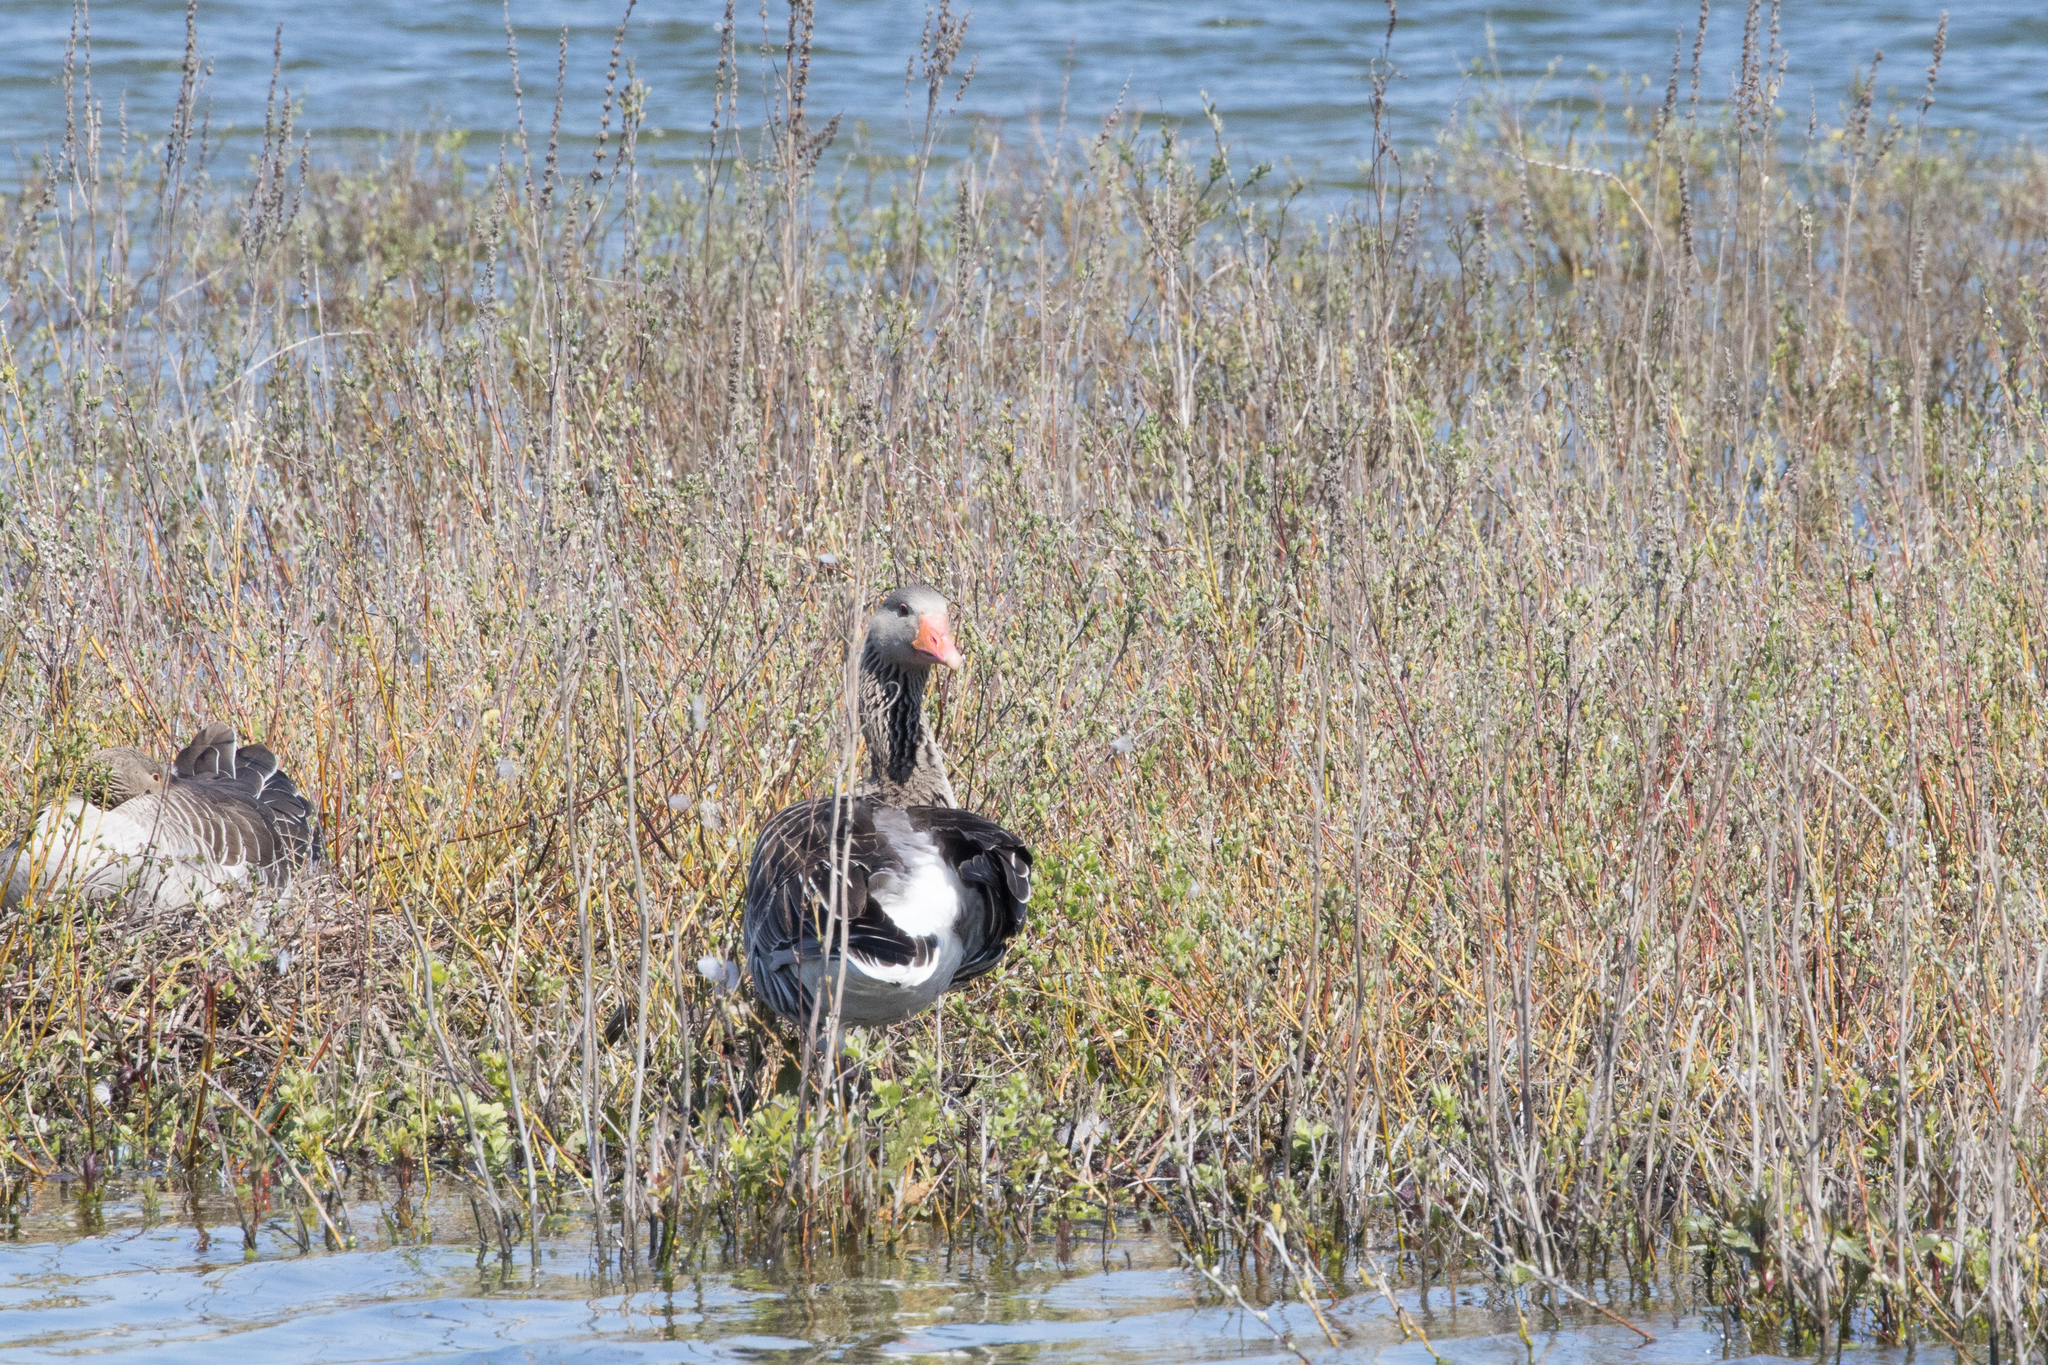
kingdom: Animalia
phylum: Chordata
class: Aves
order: Anseriformes
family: Anatidae
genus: Anser
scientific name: Anser anser
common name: Greylag goose
